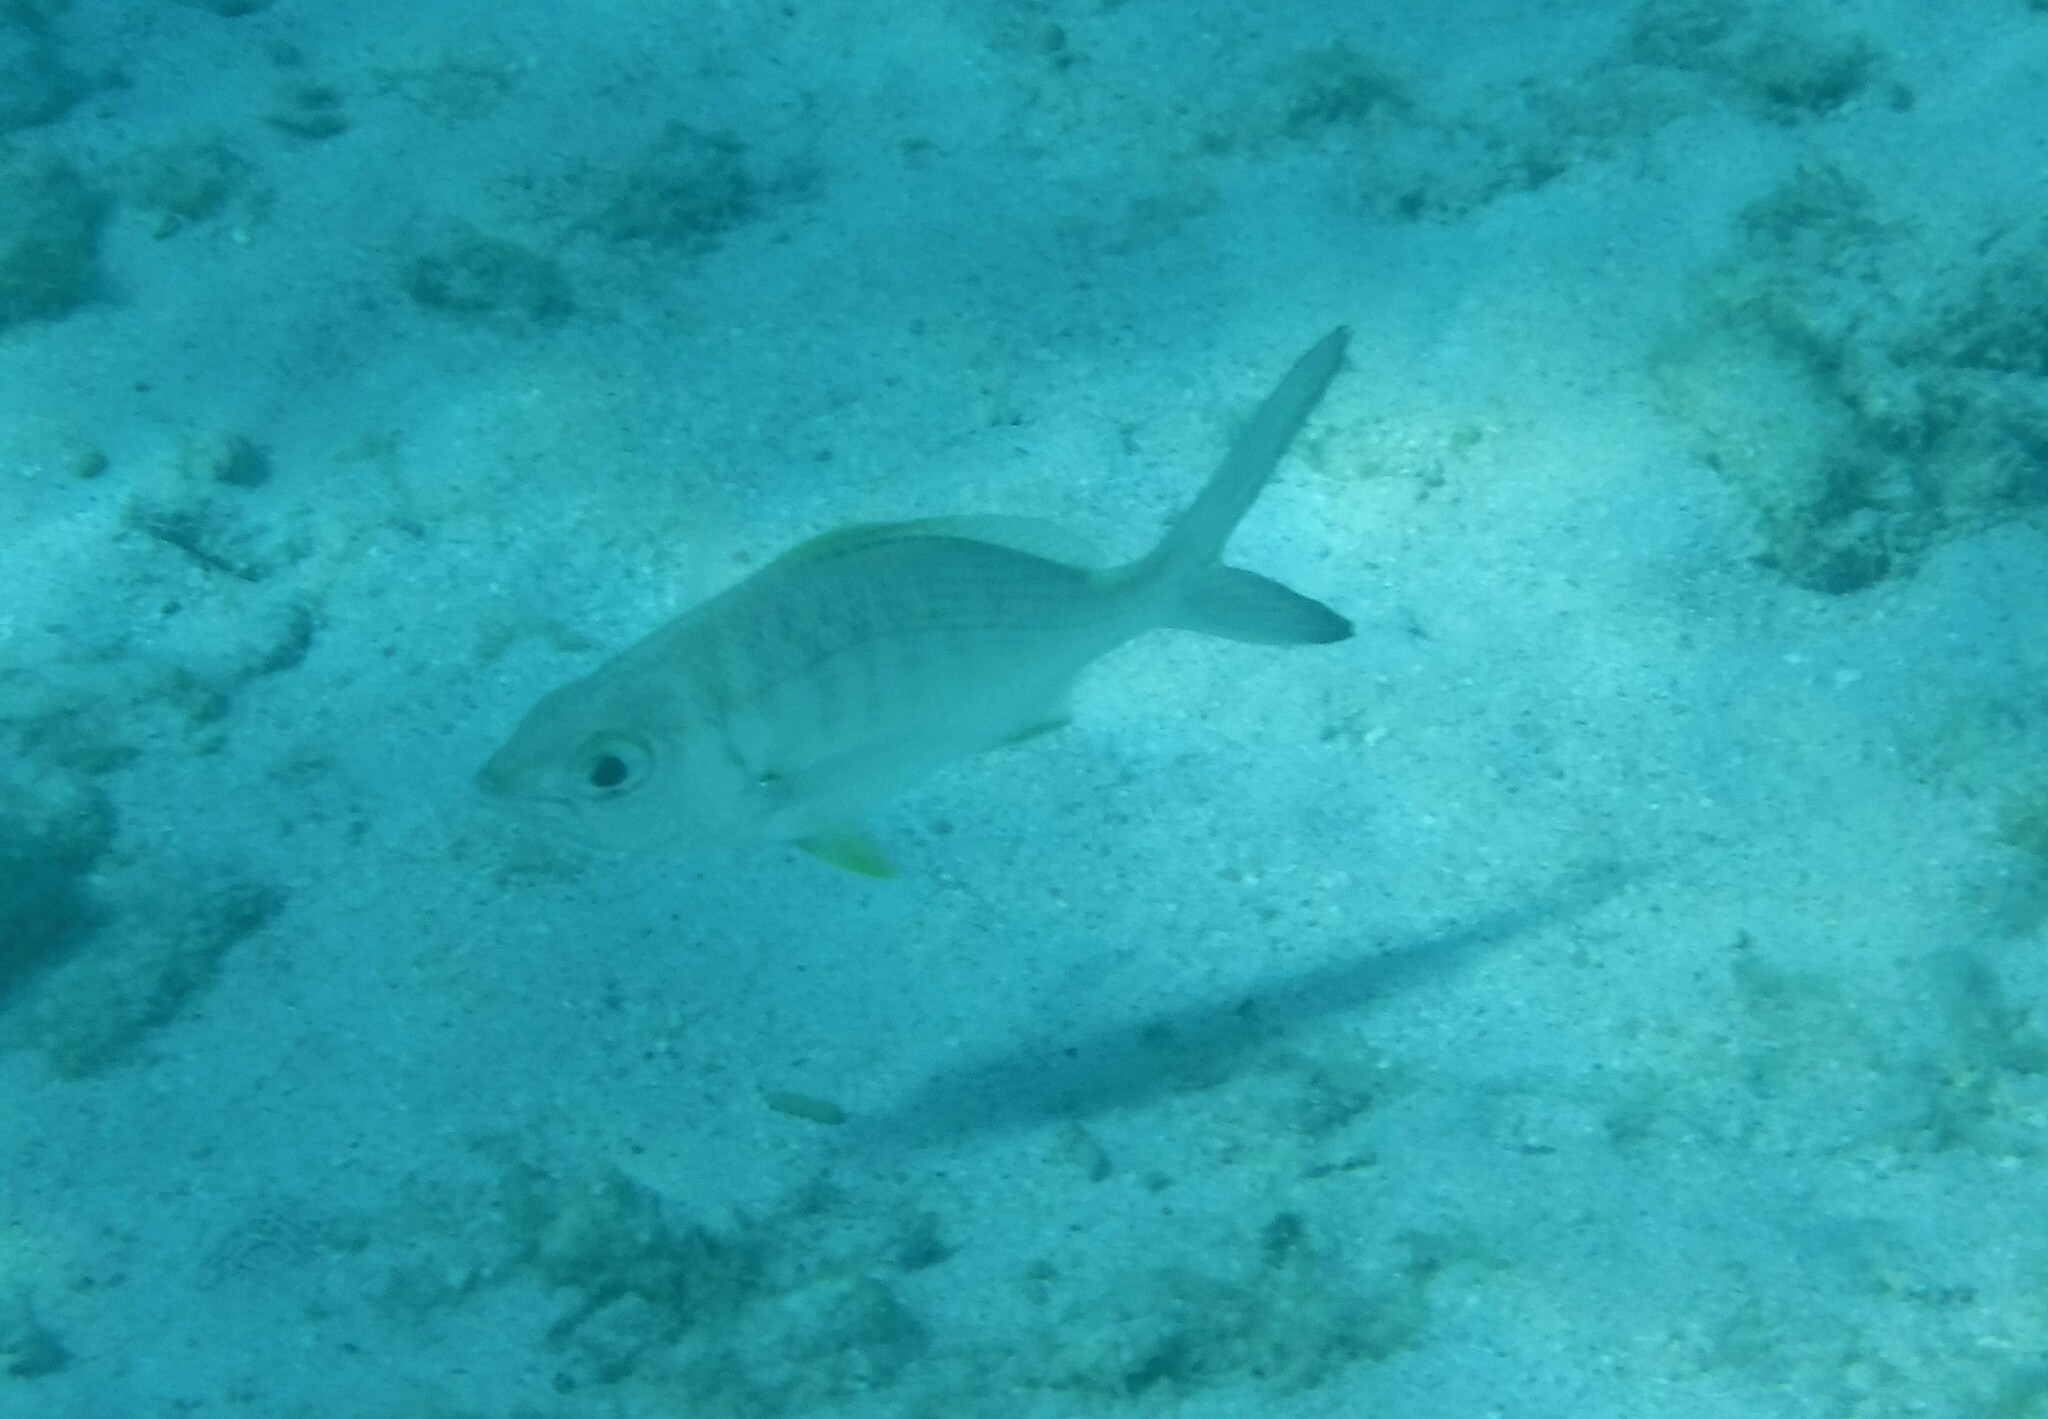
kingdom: Animalia
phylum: Chordata
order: Perciformes
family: Gerreidae
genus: Gerres
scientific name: Gerres cinereus
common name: Hedow
